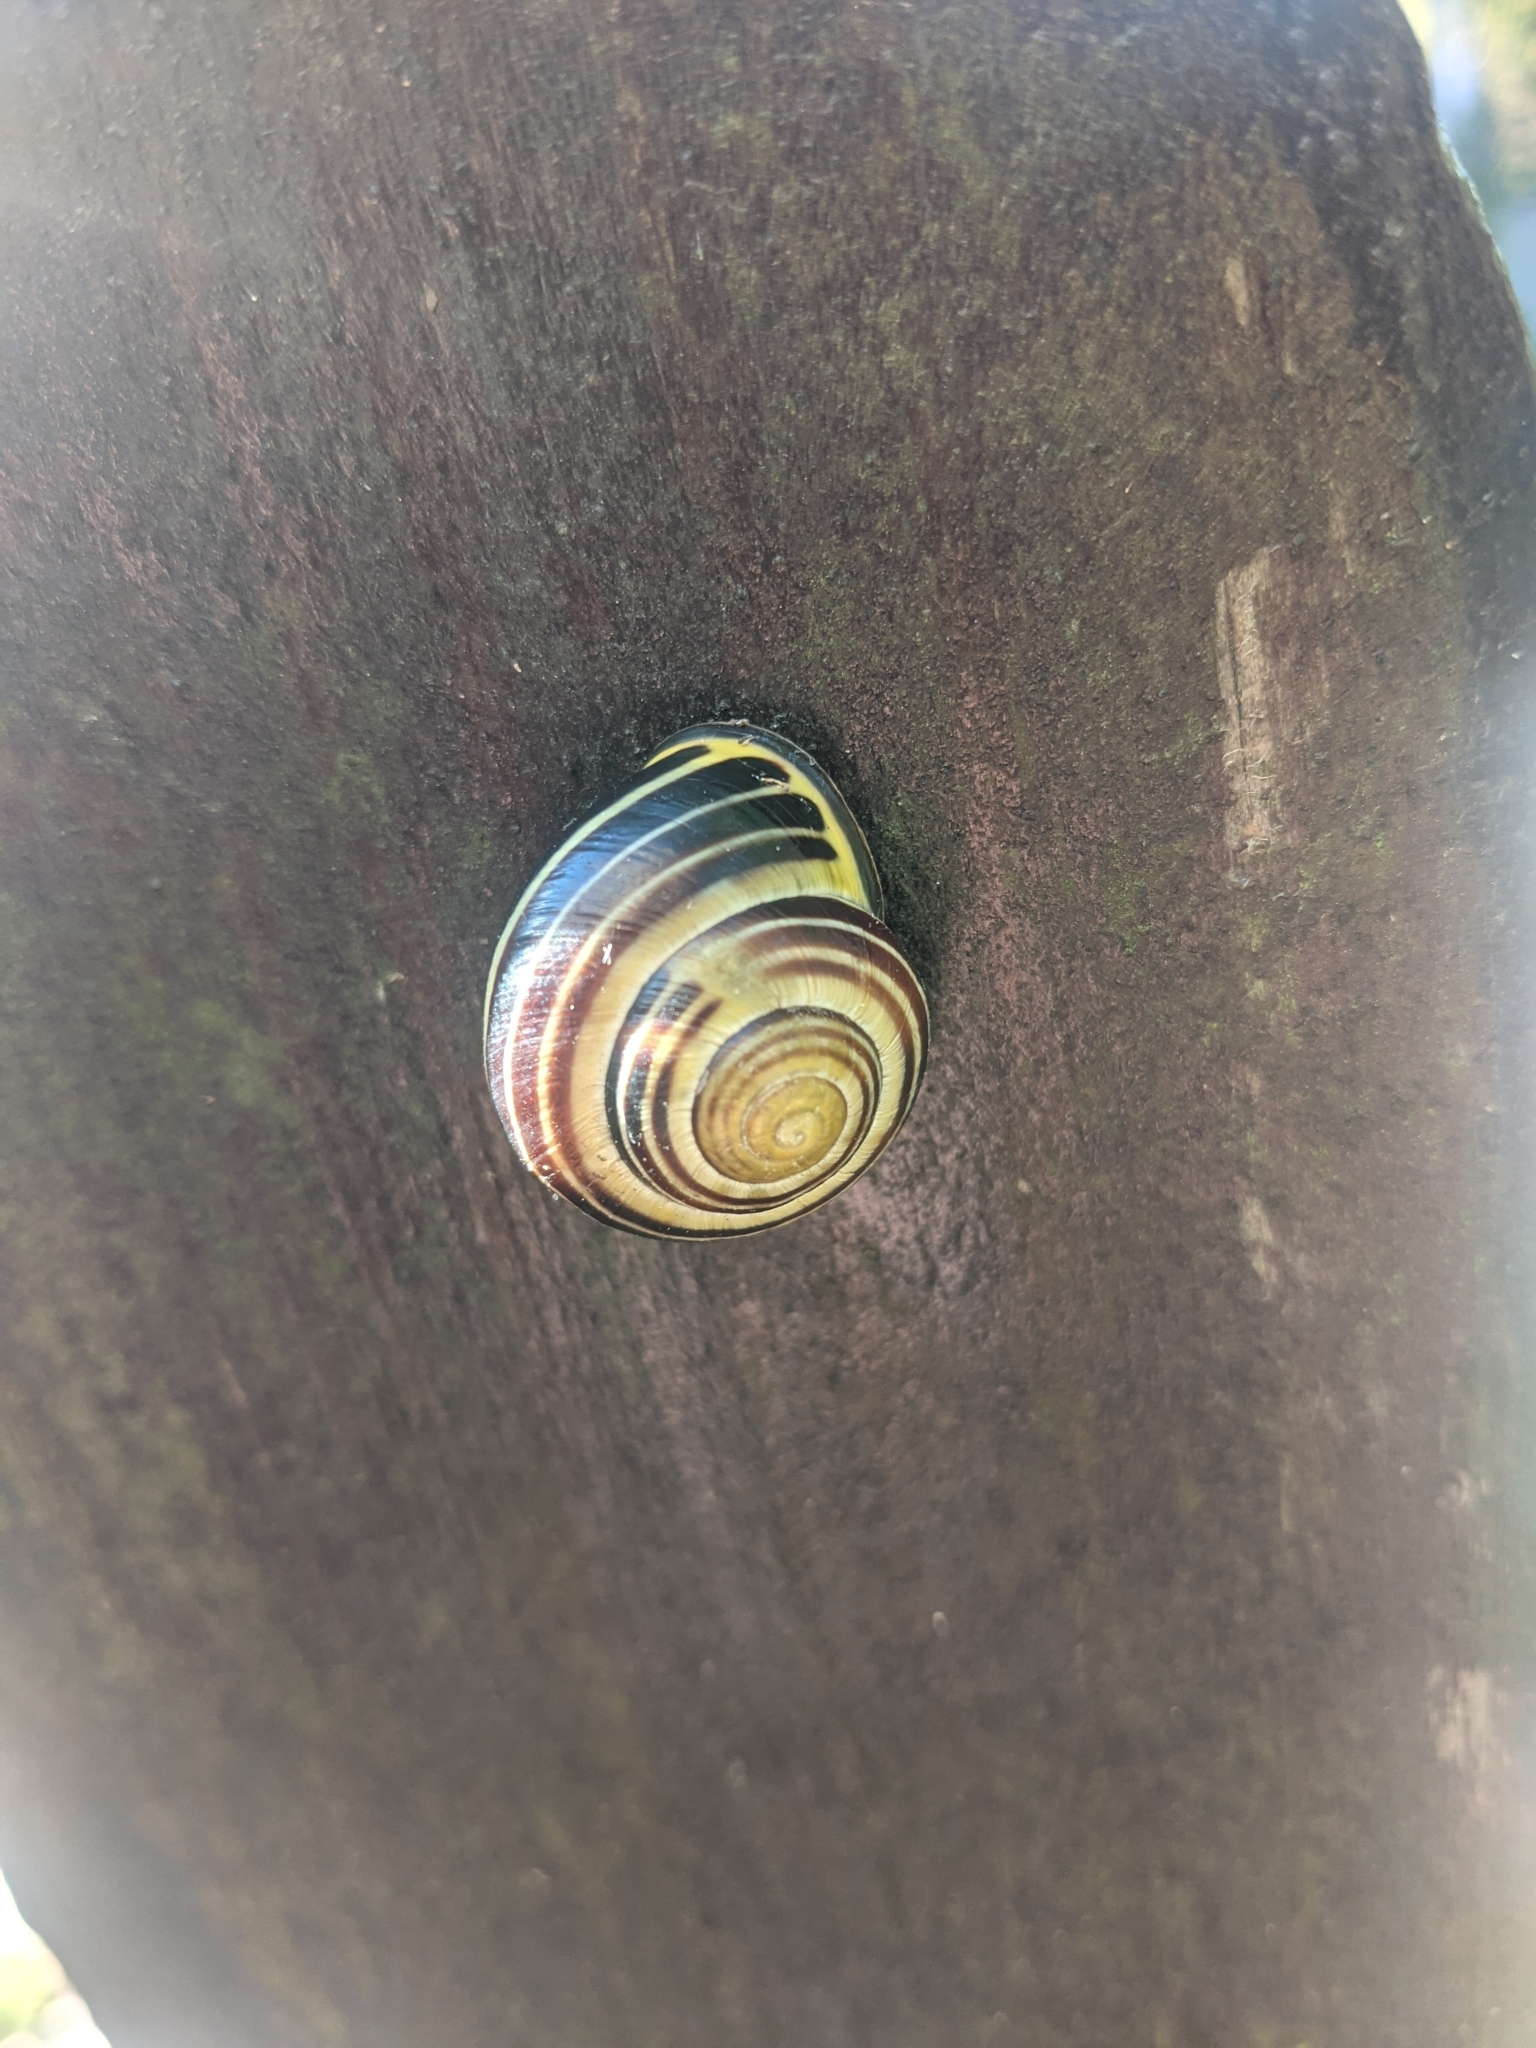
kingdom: Animalia
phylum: Mollusca
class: Gastropoda
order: Stylommatophora
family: Helicidae
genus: Cepaea
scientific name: Cepaea nemoralis
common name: Grovesnail
